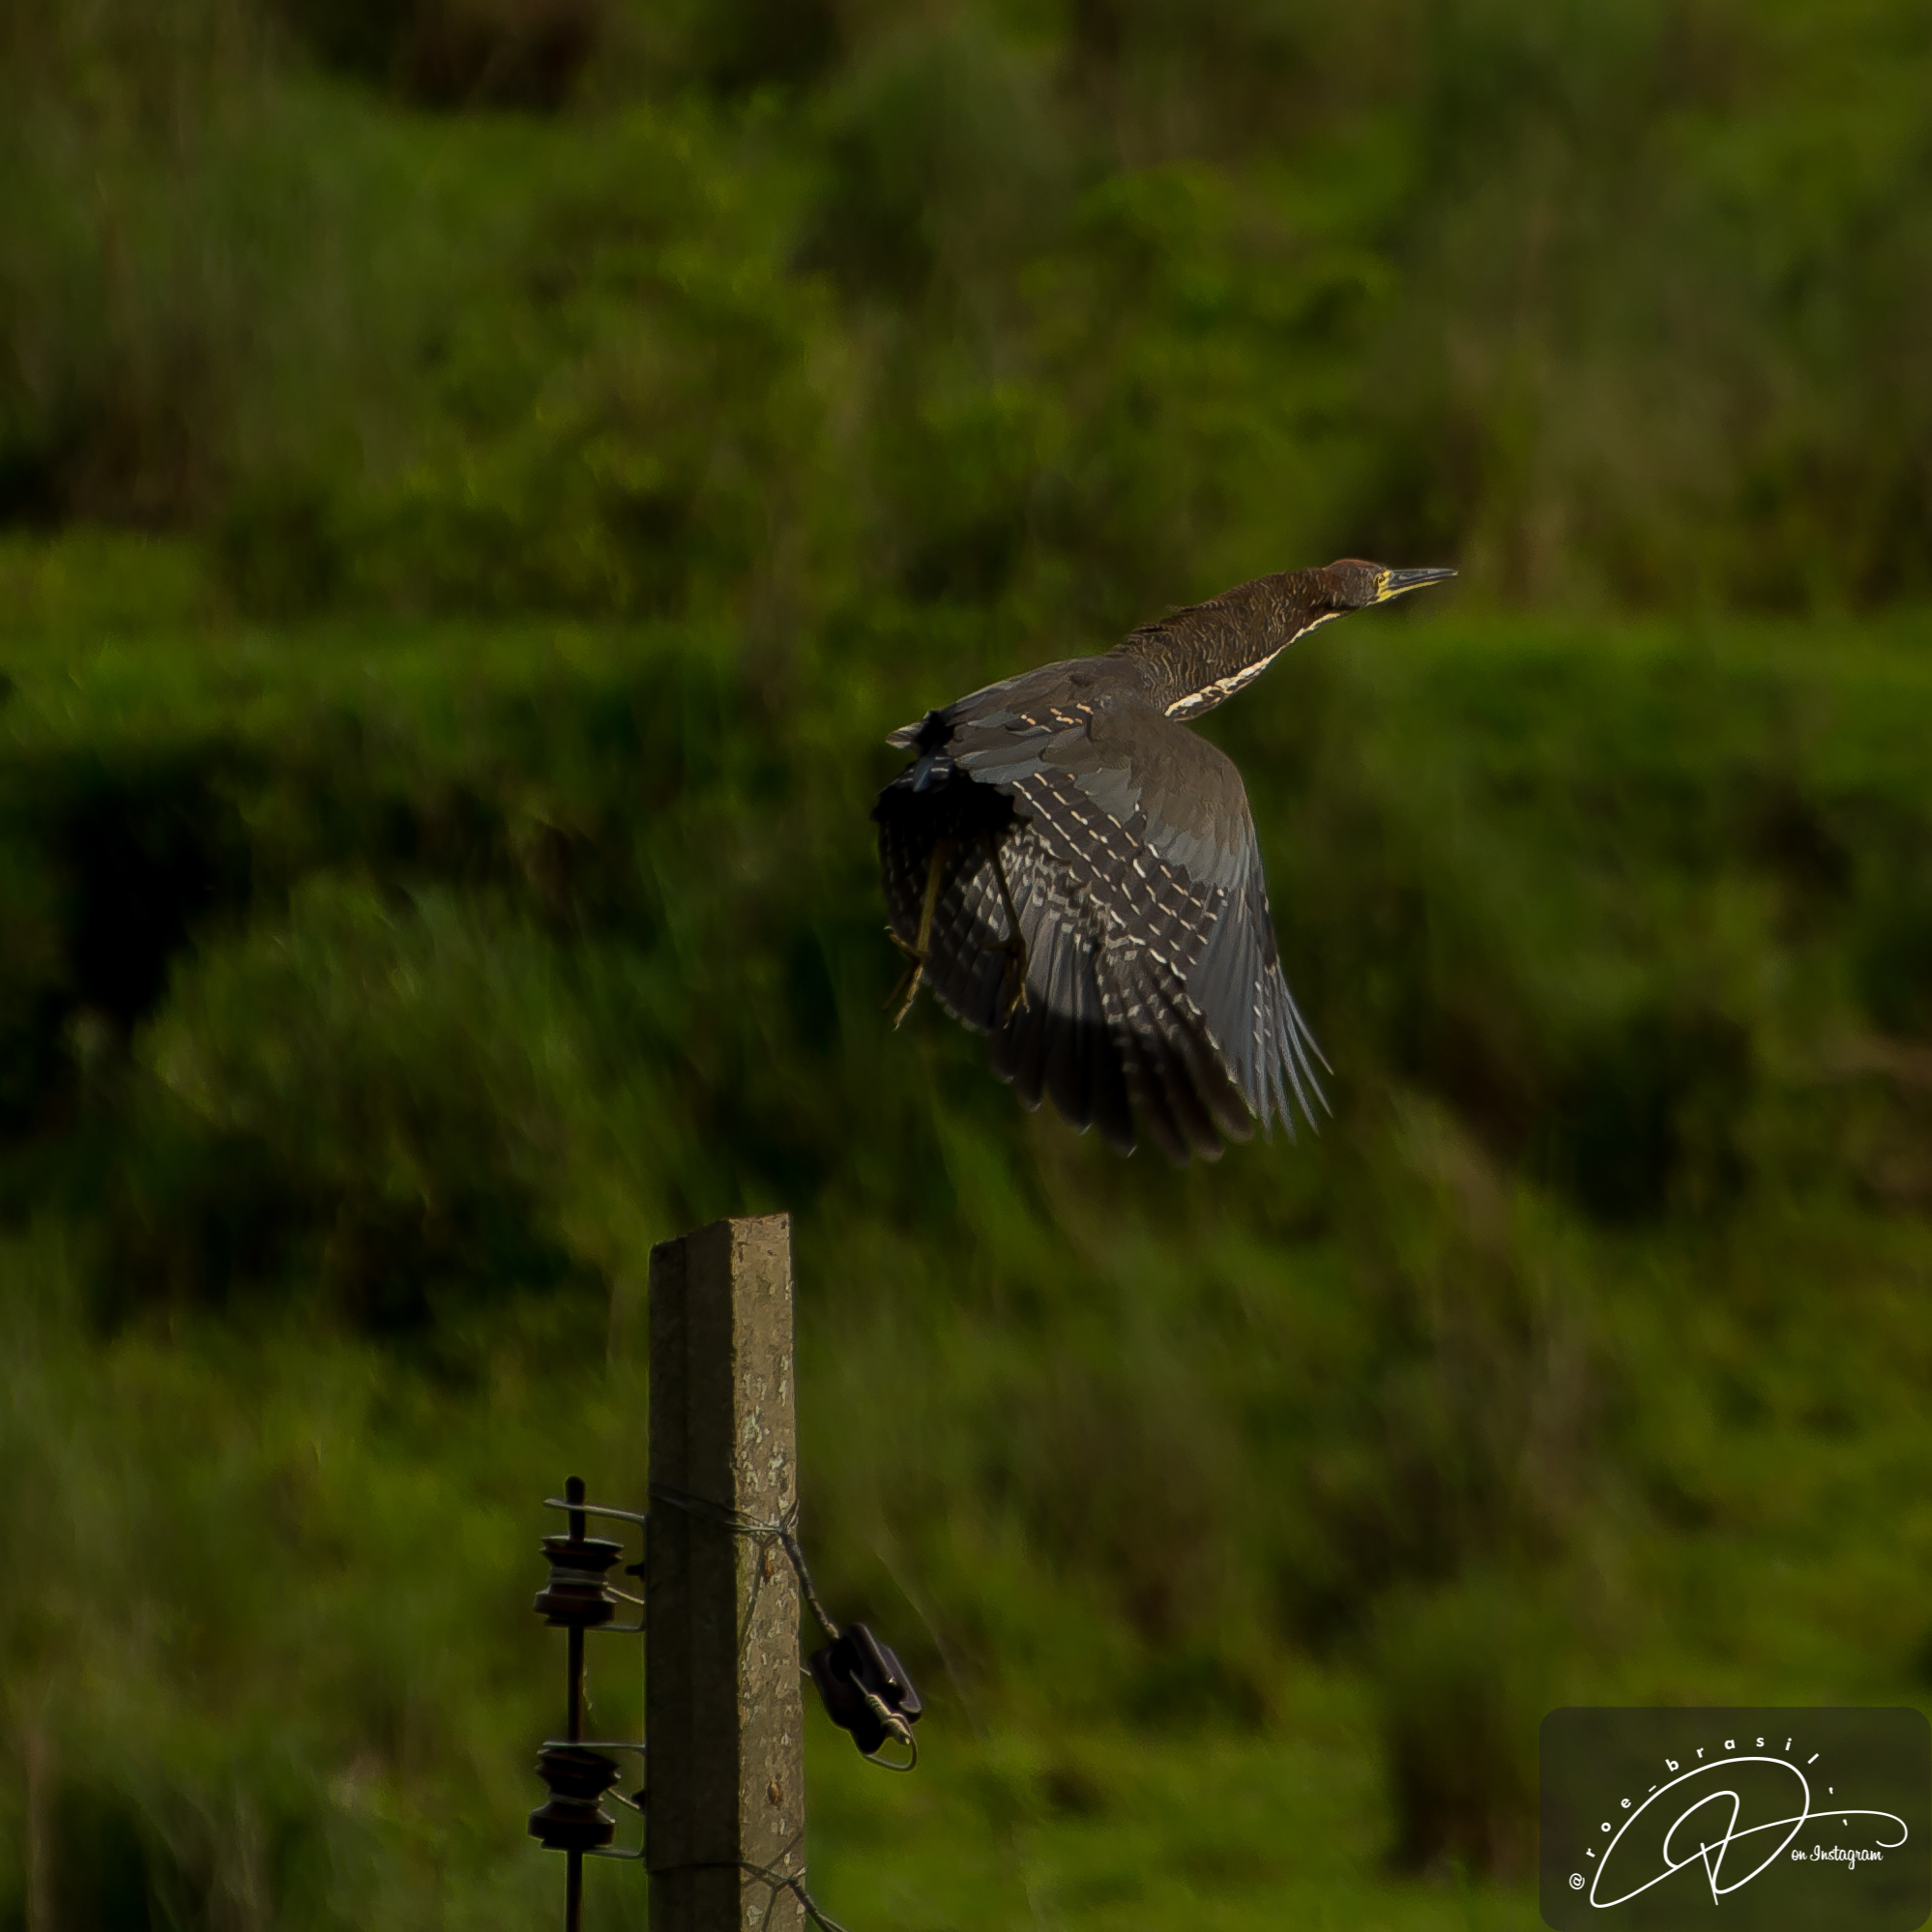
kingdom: Animalia
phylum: Chordata
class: Aves
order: Pelecaniformes
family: Ardeidae
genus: Tigrisoma
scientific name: Tigrisoma lineatum
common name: Rufescent tiger-heron
